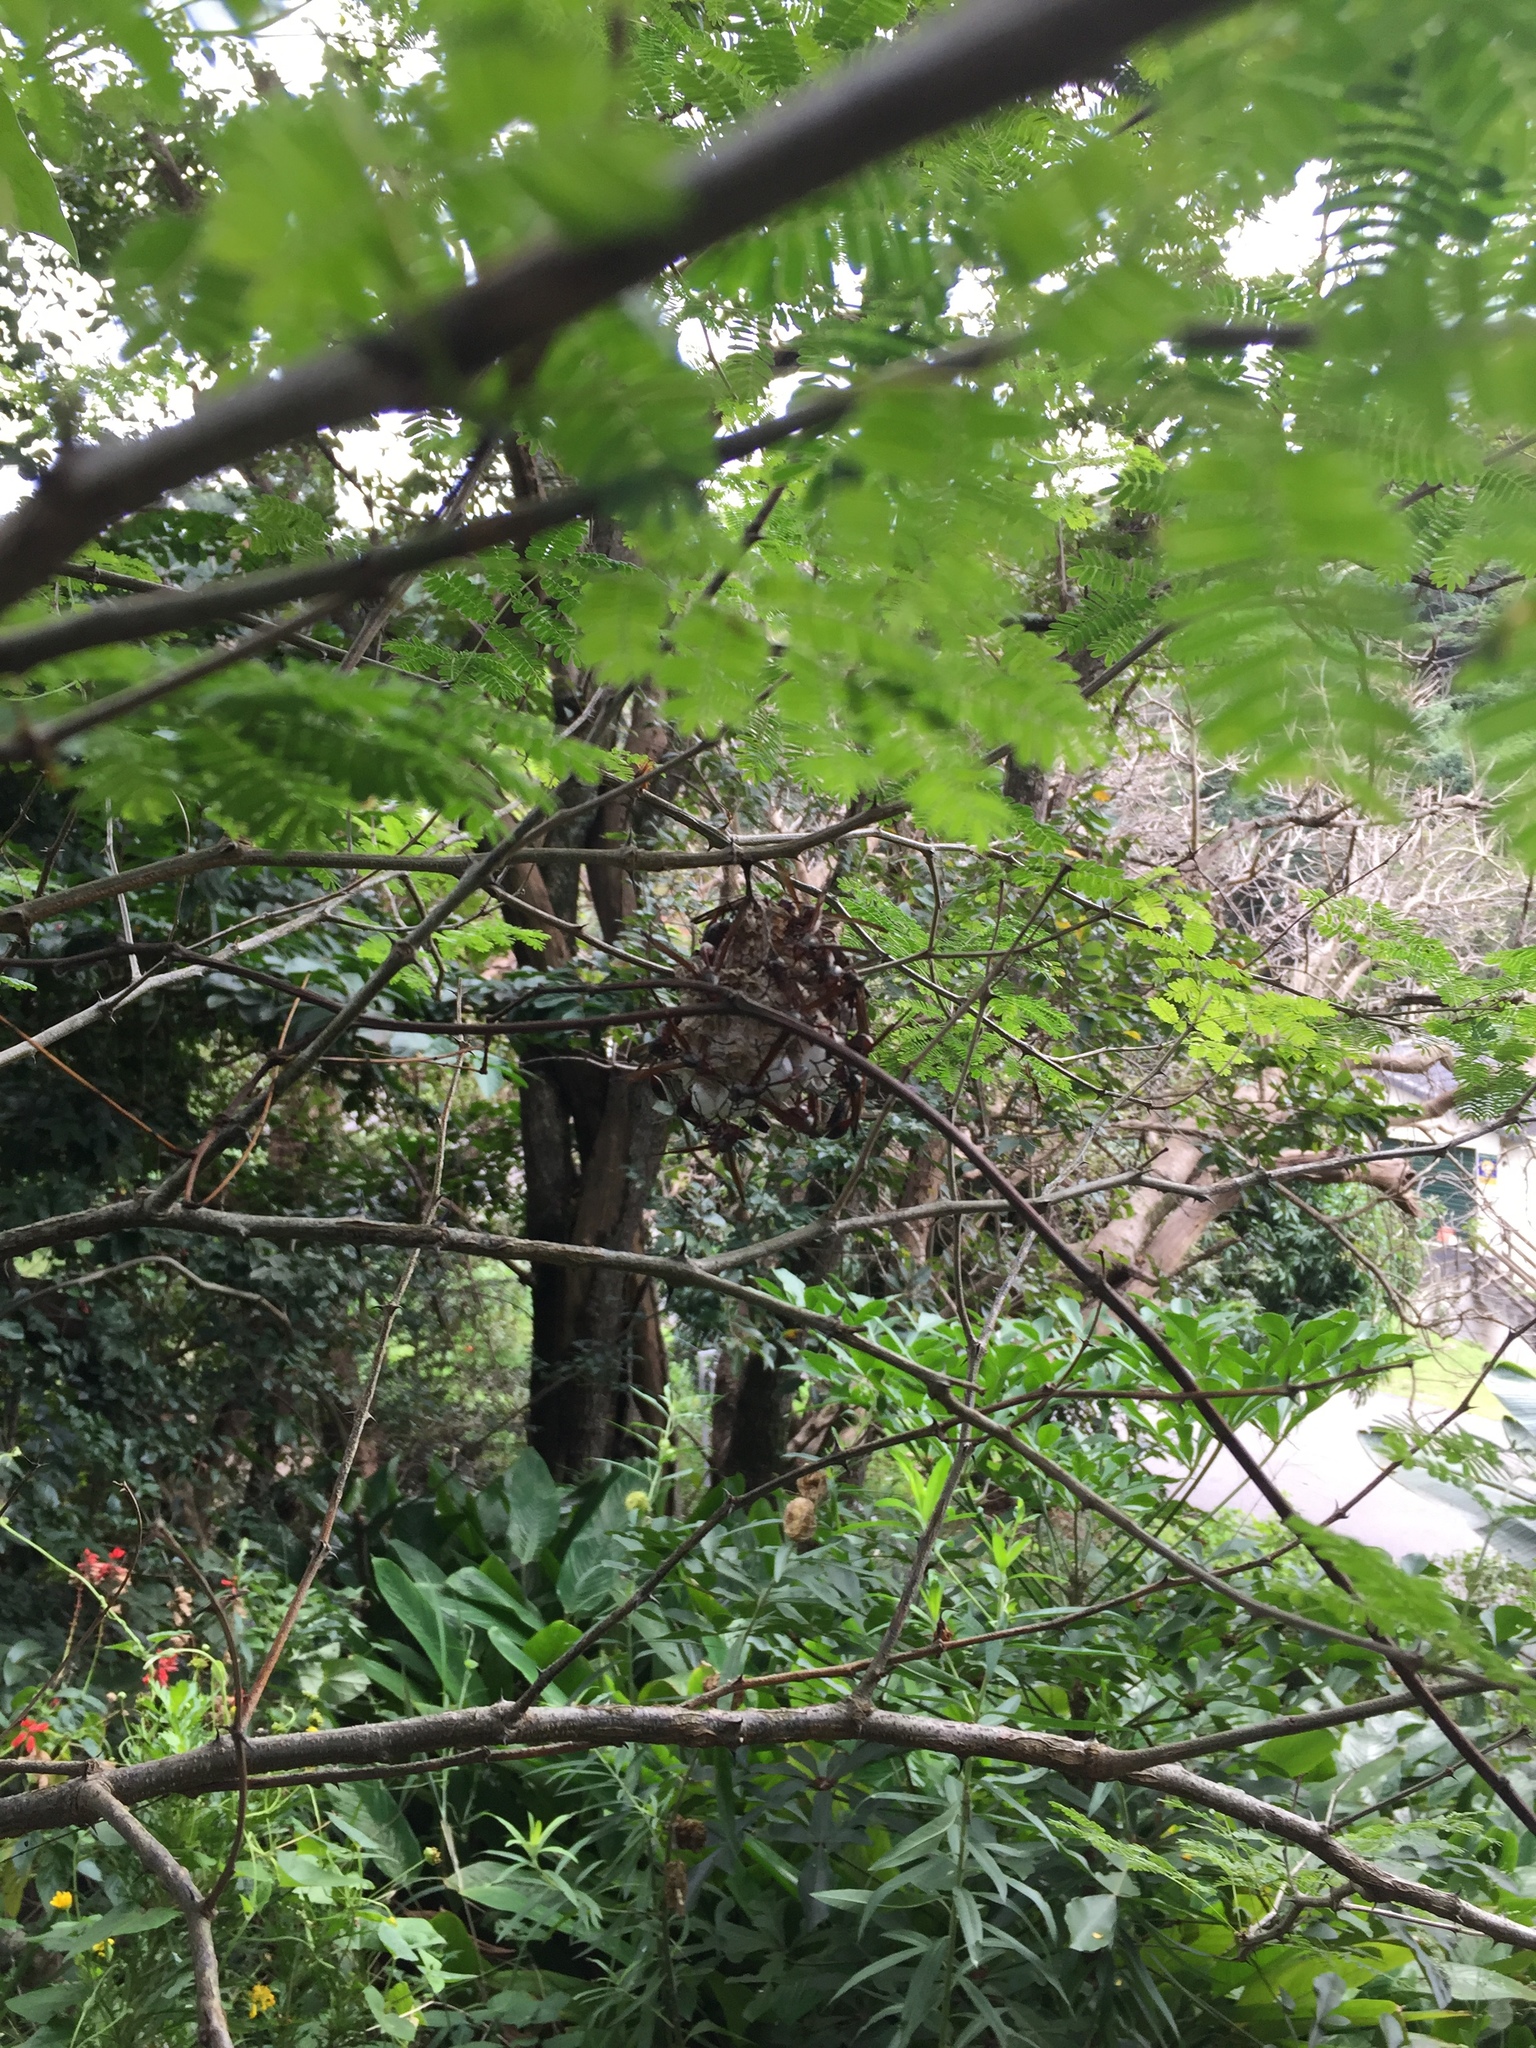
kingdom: Animalia
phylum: Arthropoda
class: Insecta
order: Hymenoptera
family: Eumenidae
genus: Belonogaster
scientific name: Belonogaster
